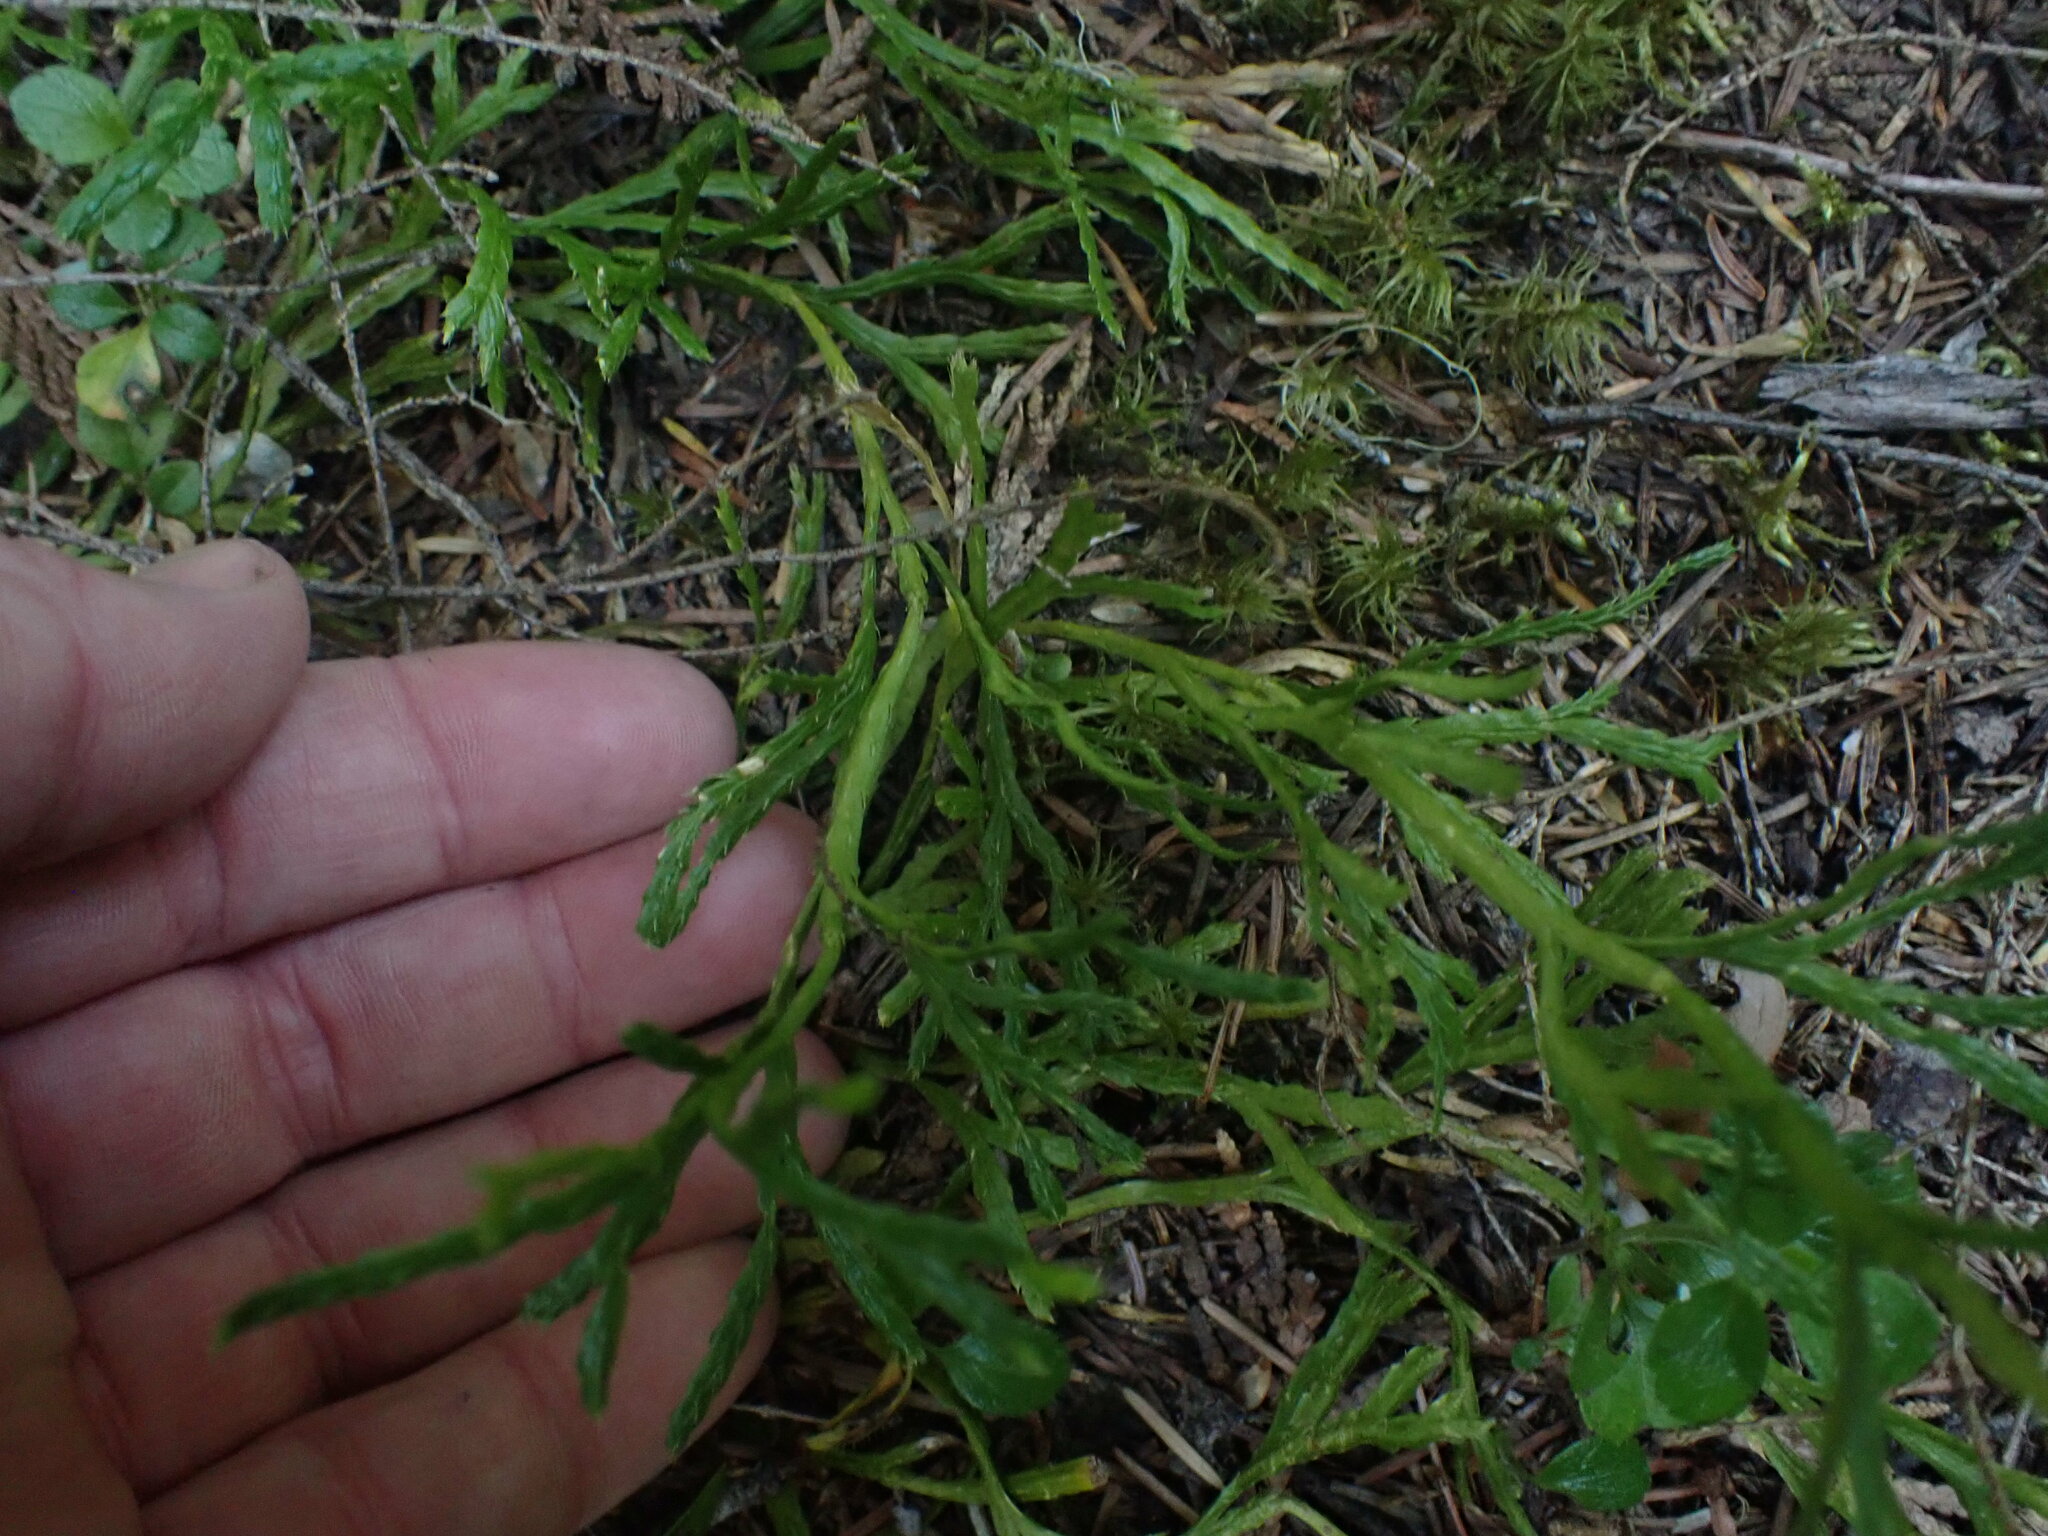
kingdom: Plantae
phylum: Tracheophyta
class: Lycopodiopsida
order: Lycopodiales
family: Lycopodiaceae
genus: Diphasiastrum
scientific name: Diphasiastrum complanatum
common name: Northern running-pine
